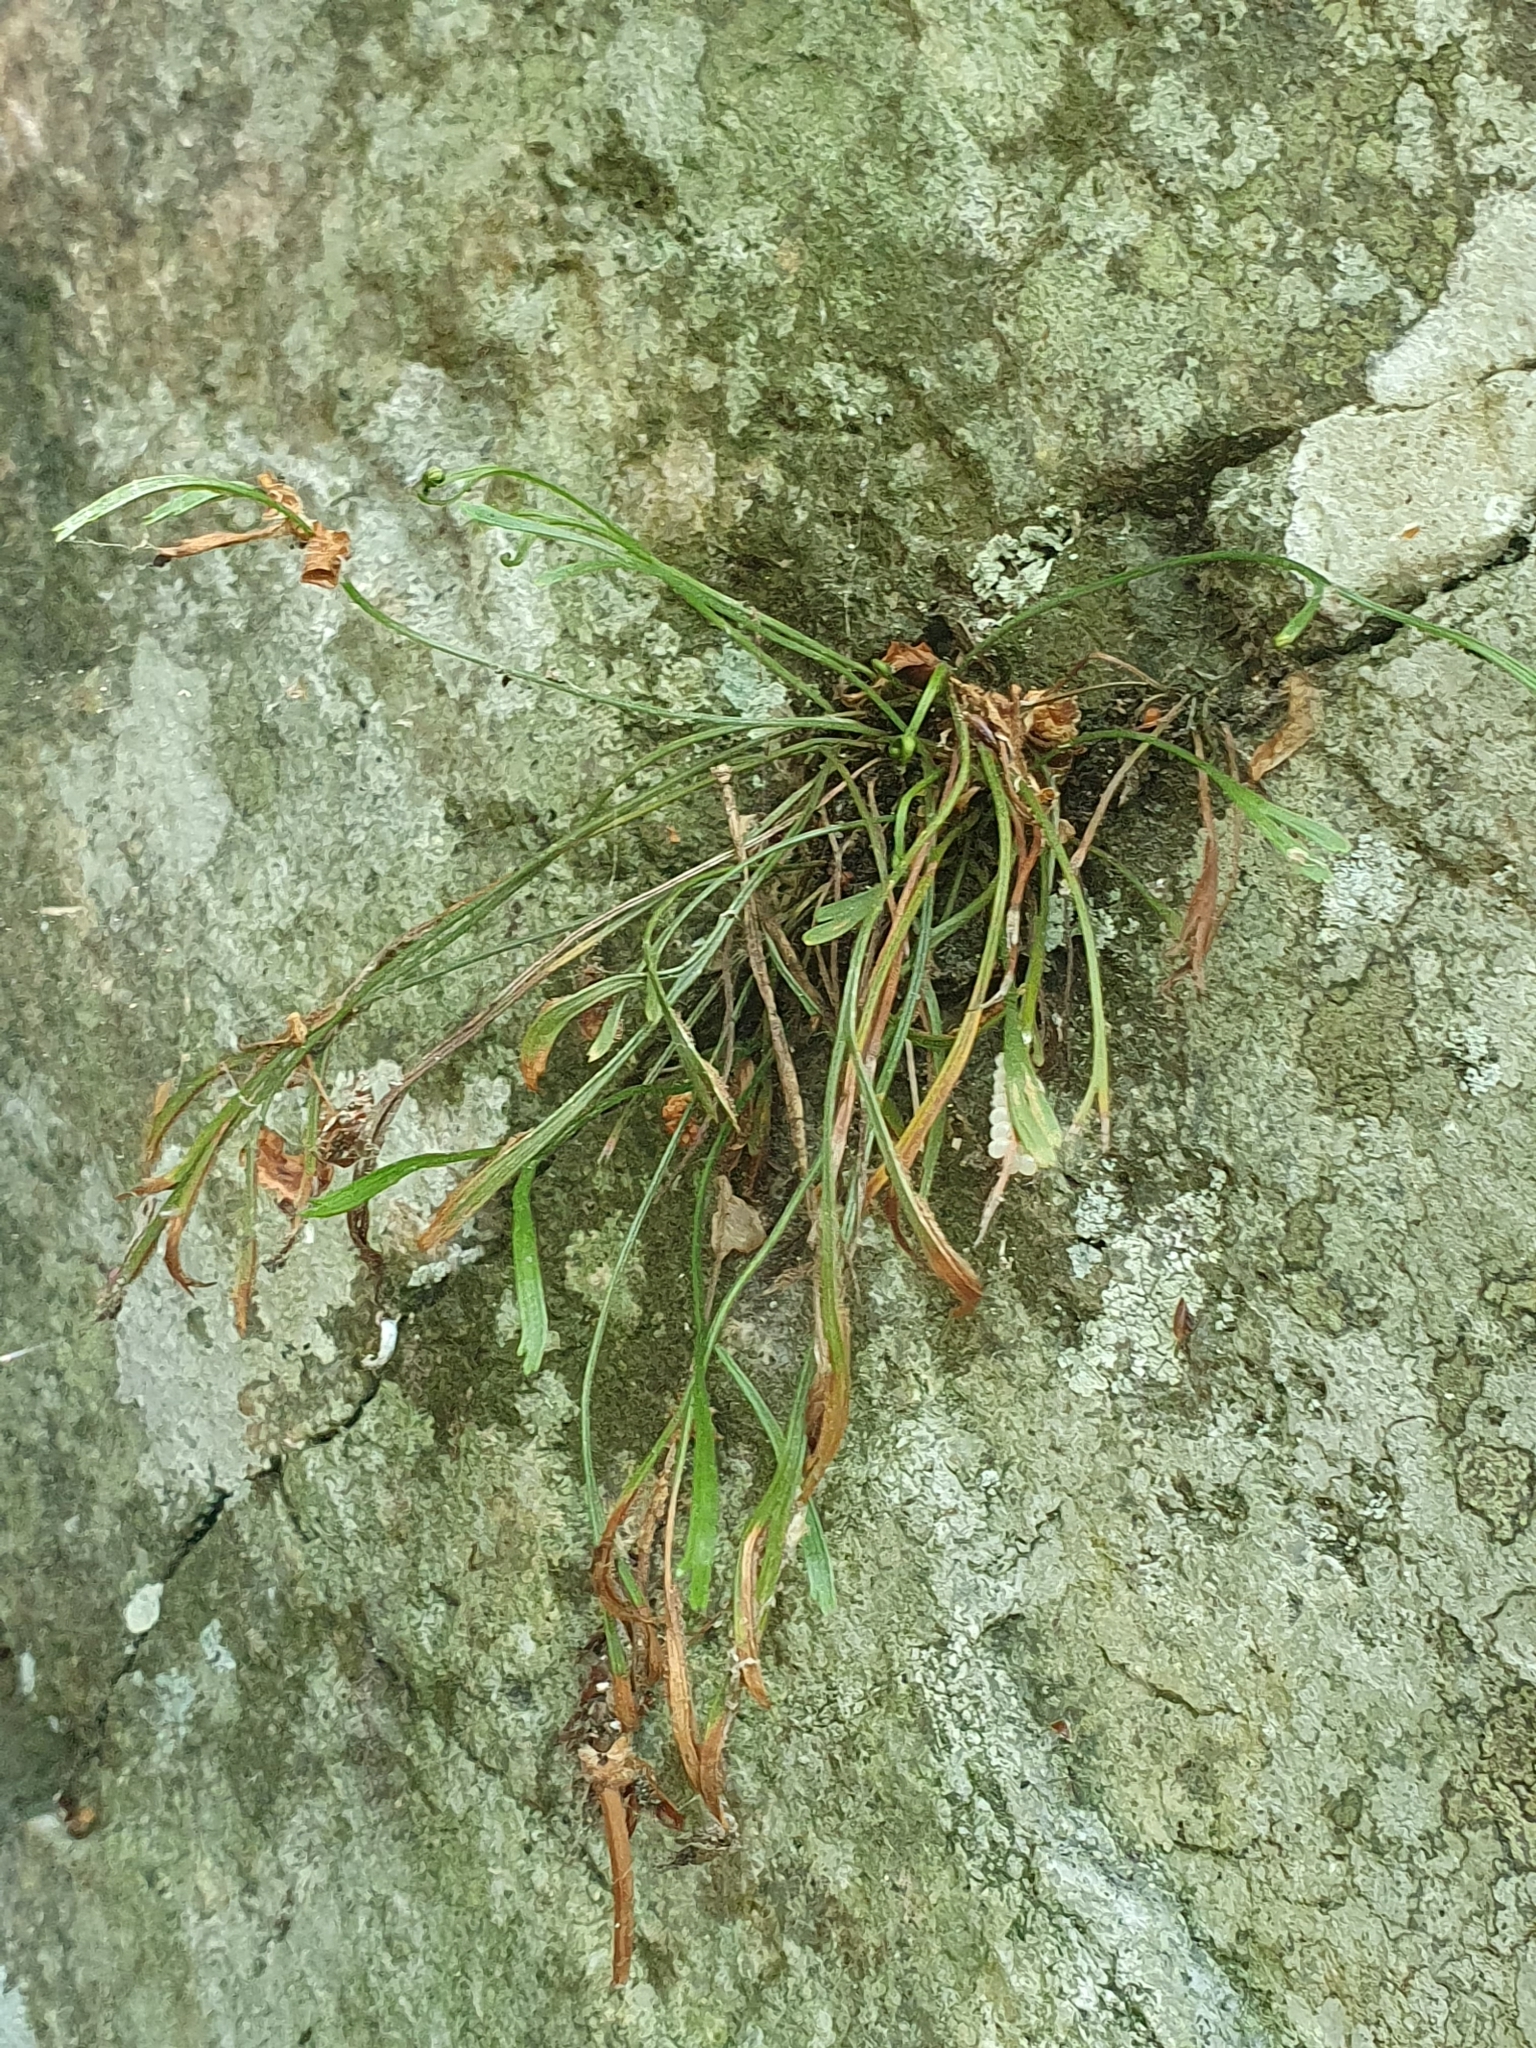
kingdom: Plantae
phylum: Tracheophyta
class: Polypodiopsida
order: Polypodiales
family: Aspleniaceae
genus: Asplenium
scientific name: Asplenium septentrionale
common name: Forked spleenwort
